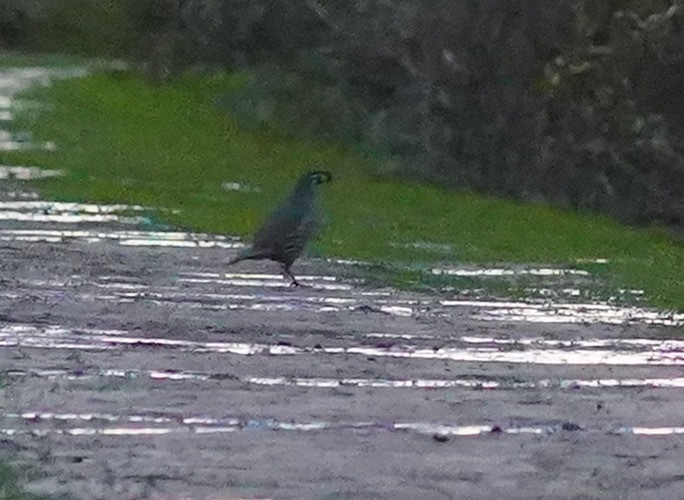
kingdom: Animalia
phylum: Chordata
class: Aves
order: Galliformes
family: Odontophoridae
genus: Callipepla
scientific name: Callipepla californica
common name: California quail
